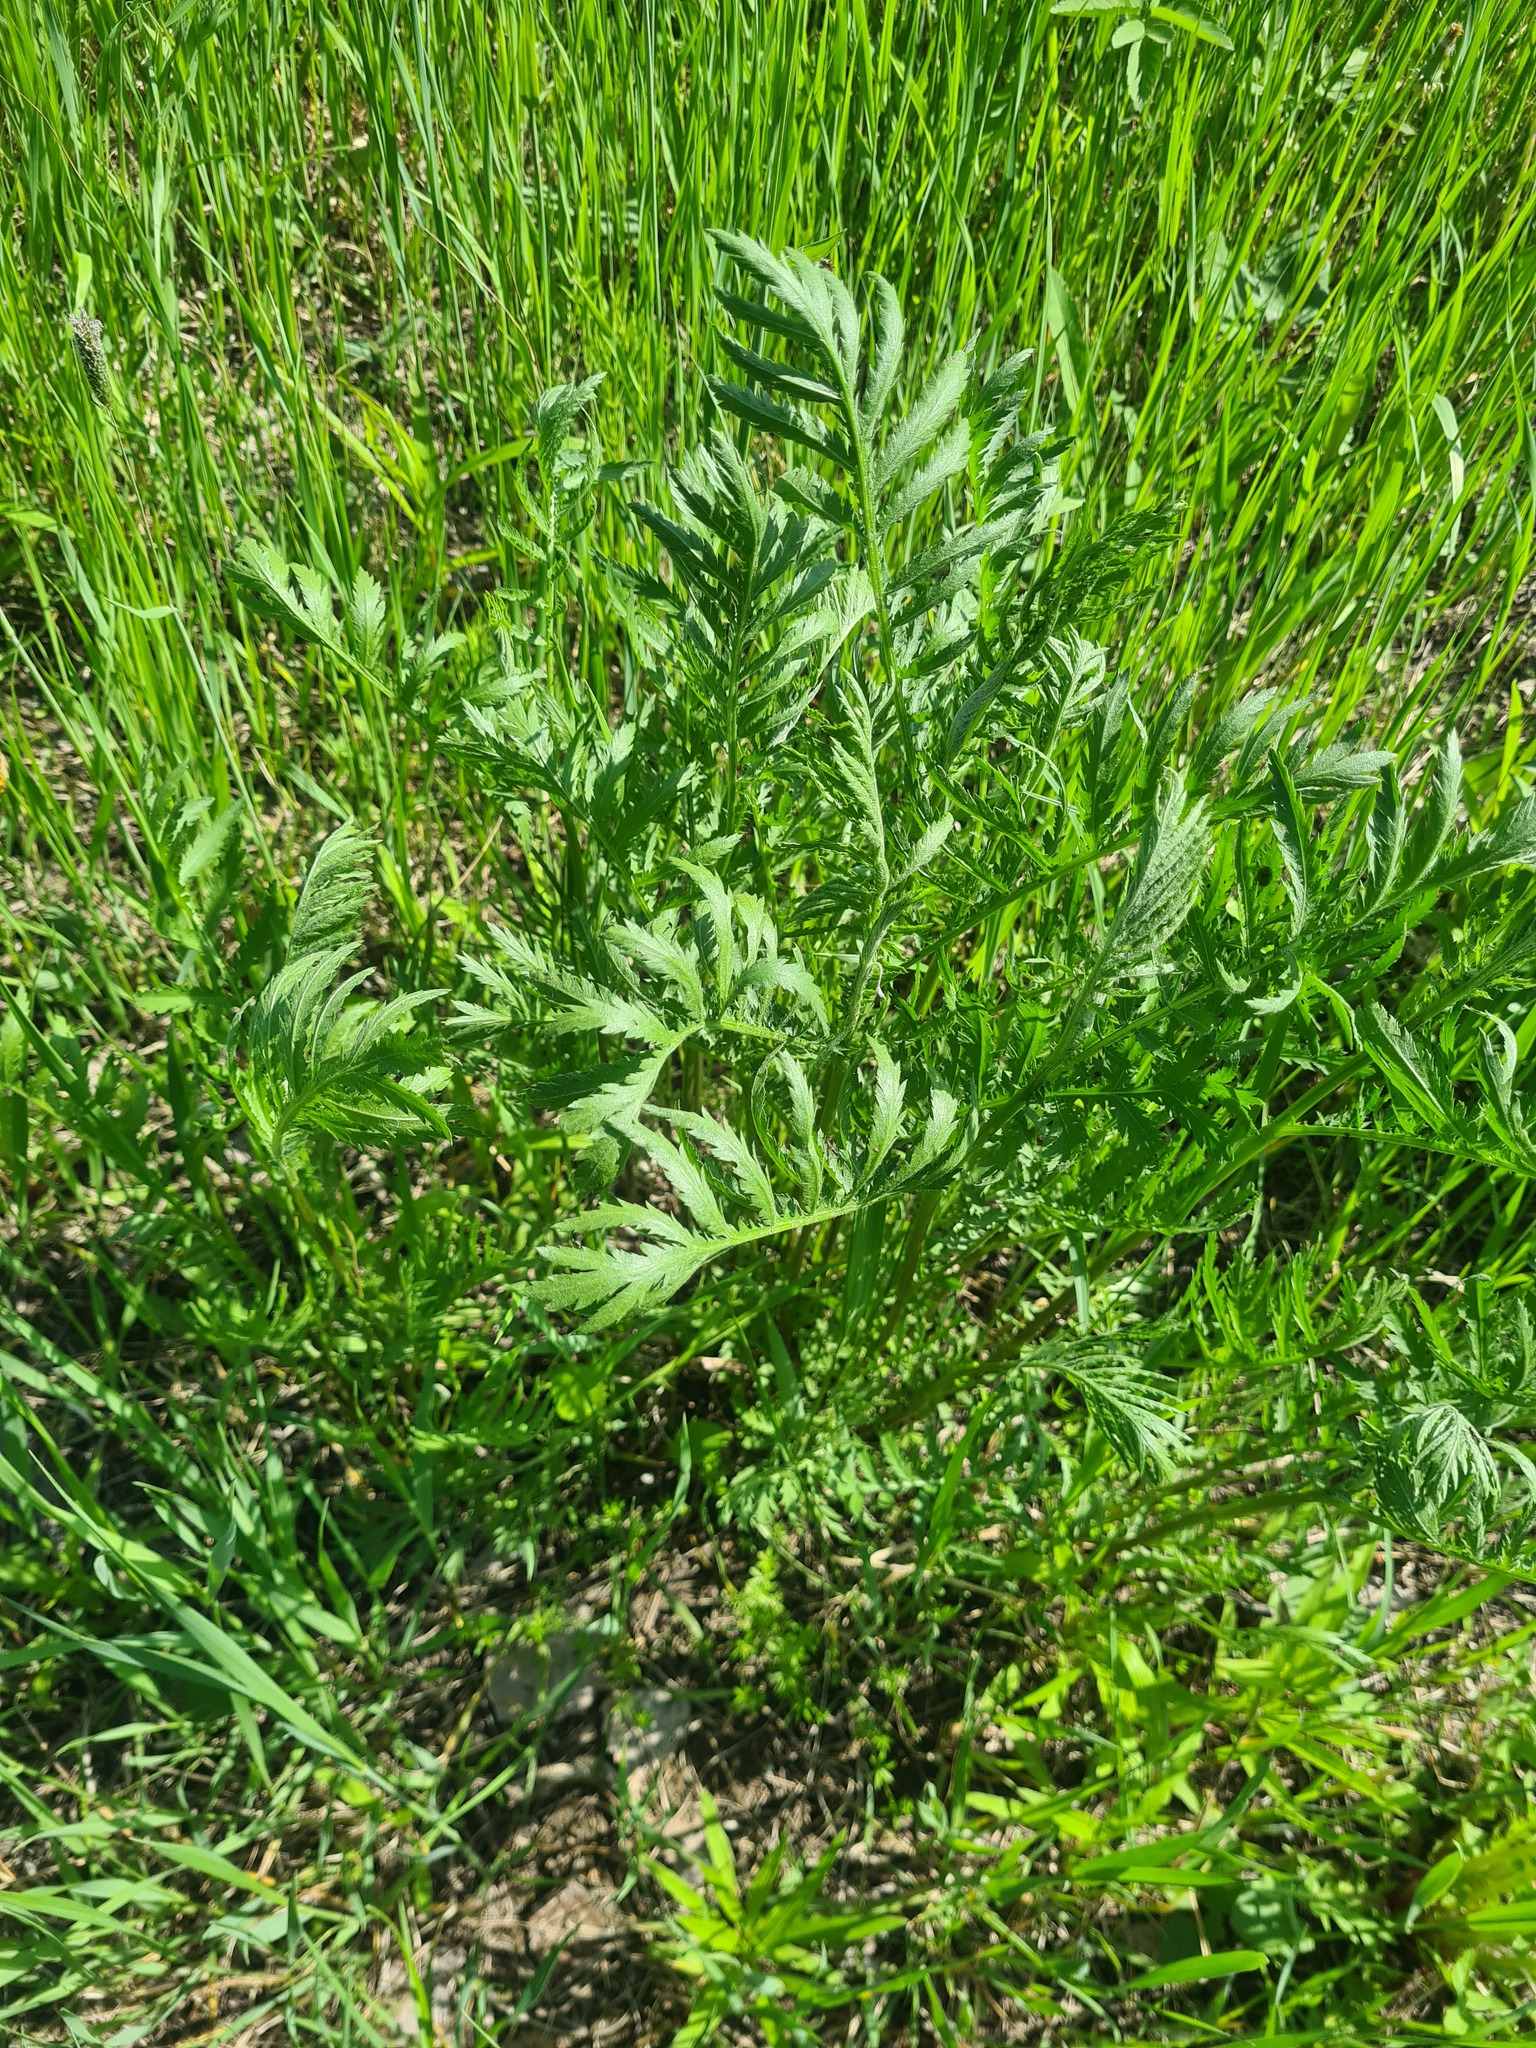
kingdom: Plantae
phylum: Tracheophyta
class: Magnoliopsida
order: Asterales
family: Asteraceae
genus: Tanacetum
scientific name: Tanacetum vulgare
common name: Common tansy
